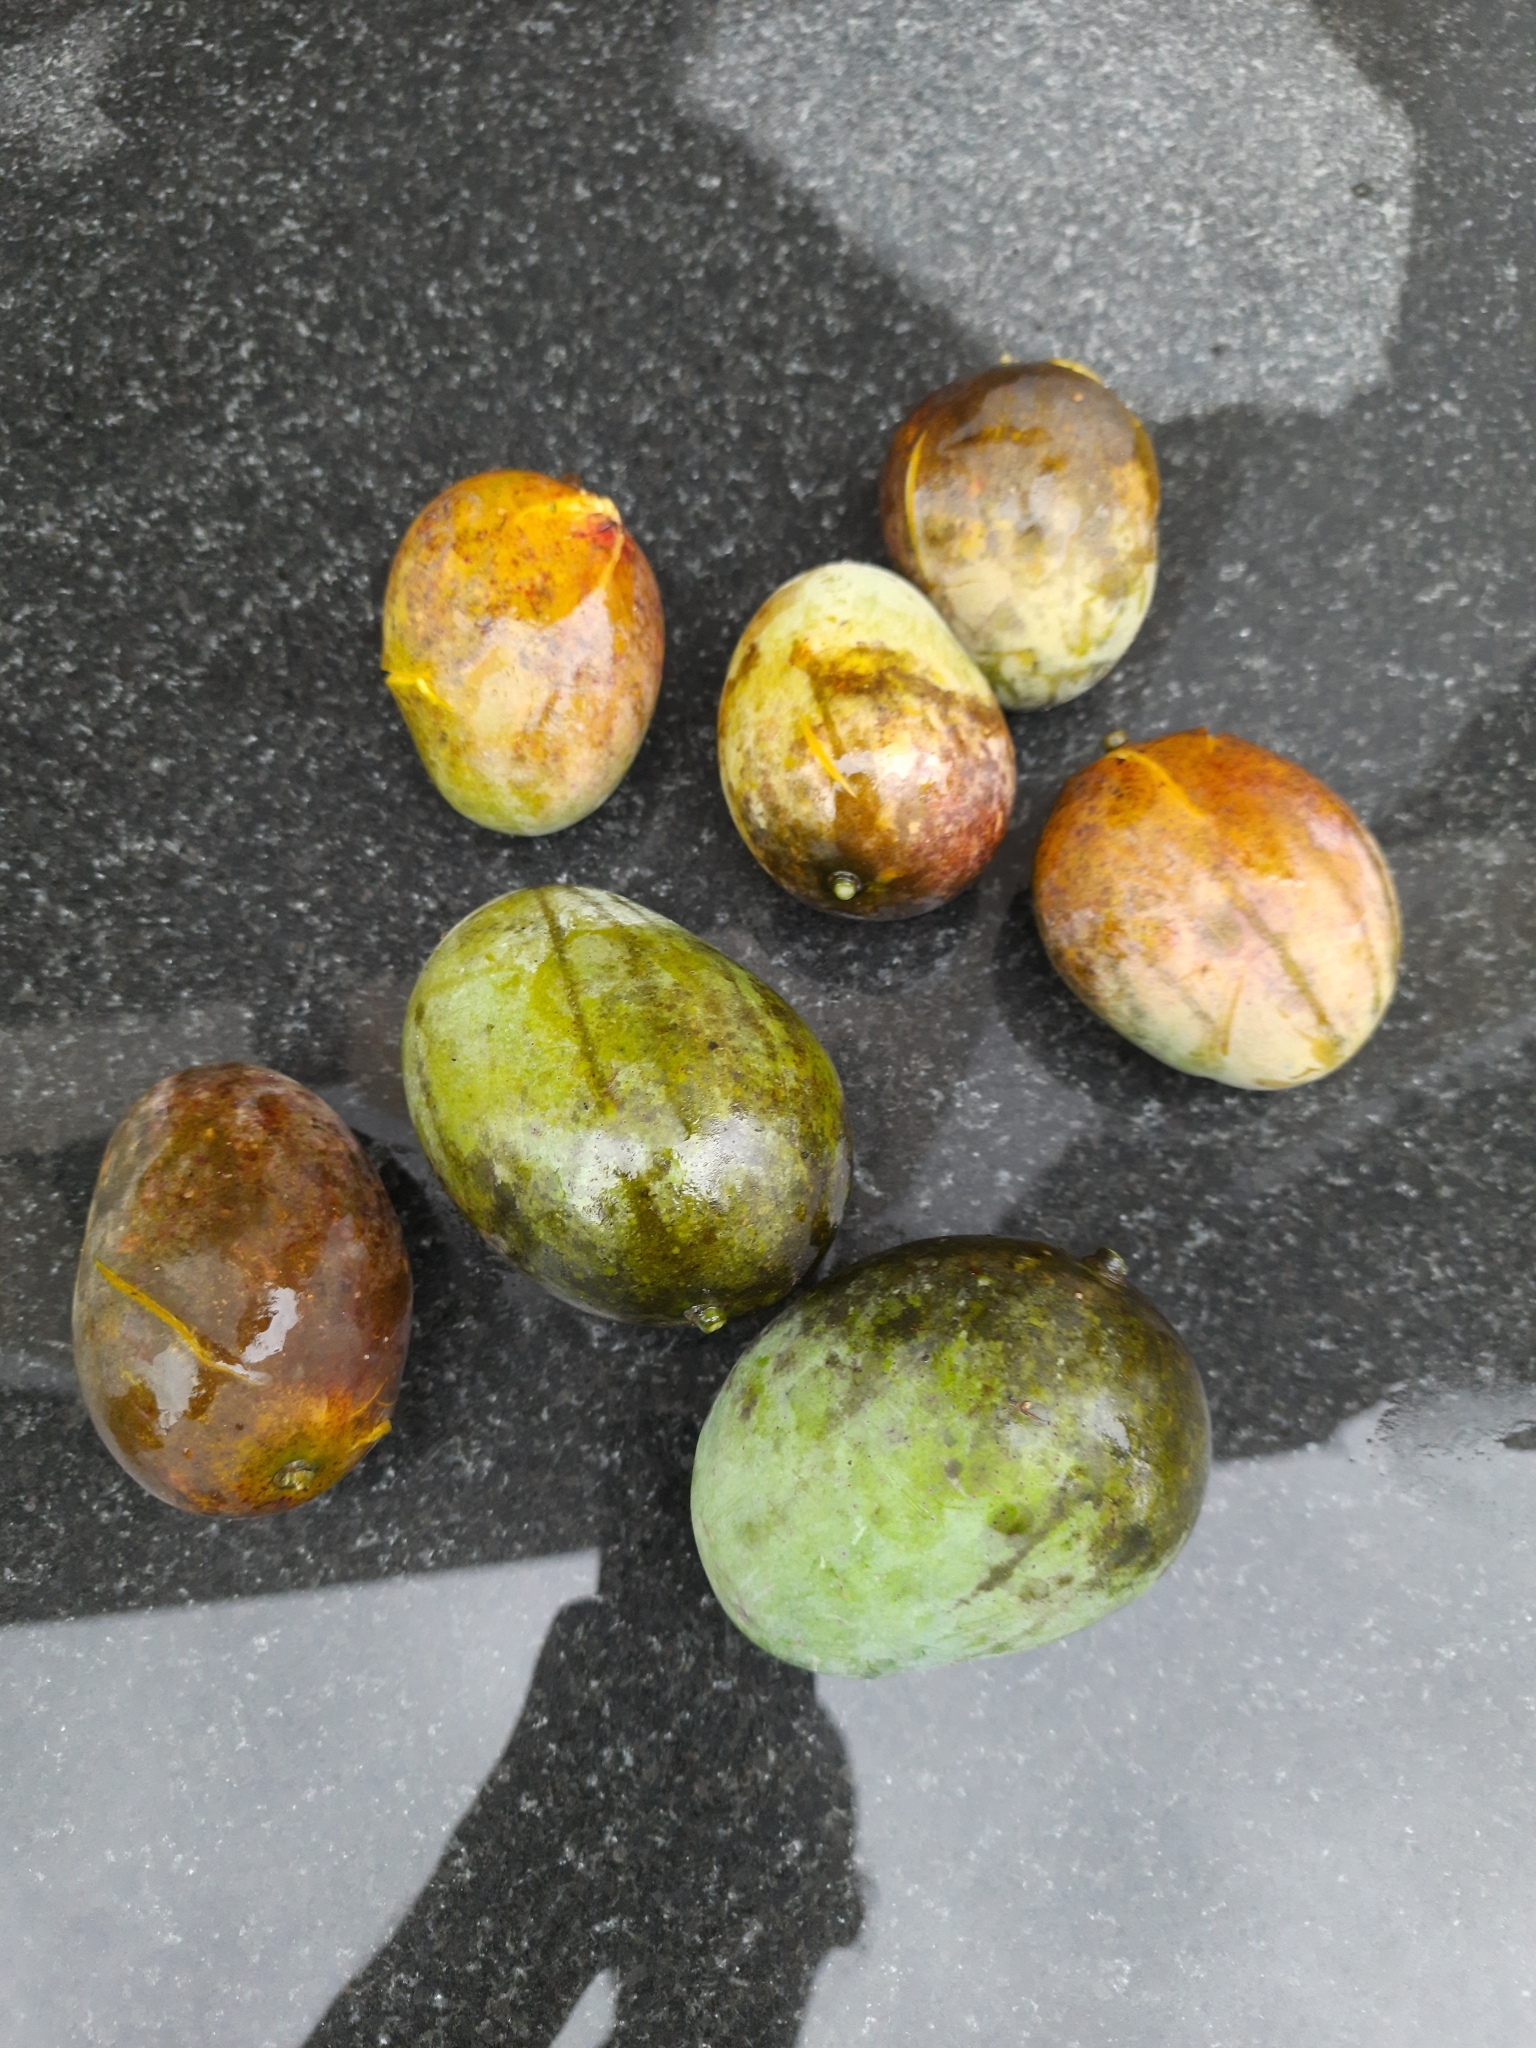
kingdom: Plantae
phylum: Tracheophyta
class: Magnoliopsida
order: Sapindales
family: Anacardiaceae
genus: Mangifera
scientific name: Mangifera indica
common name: Mango
